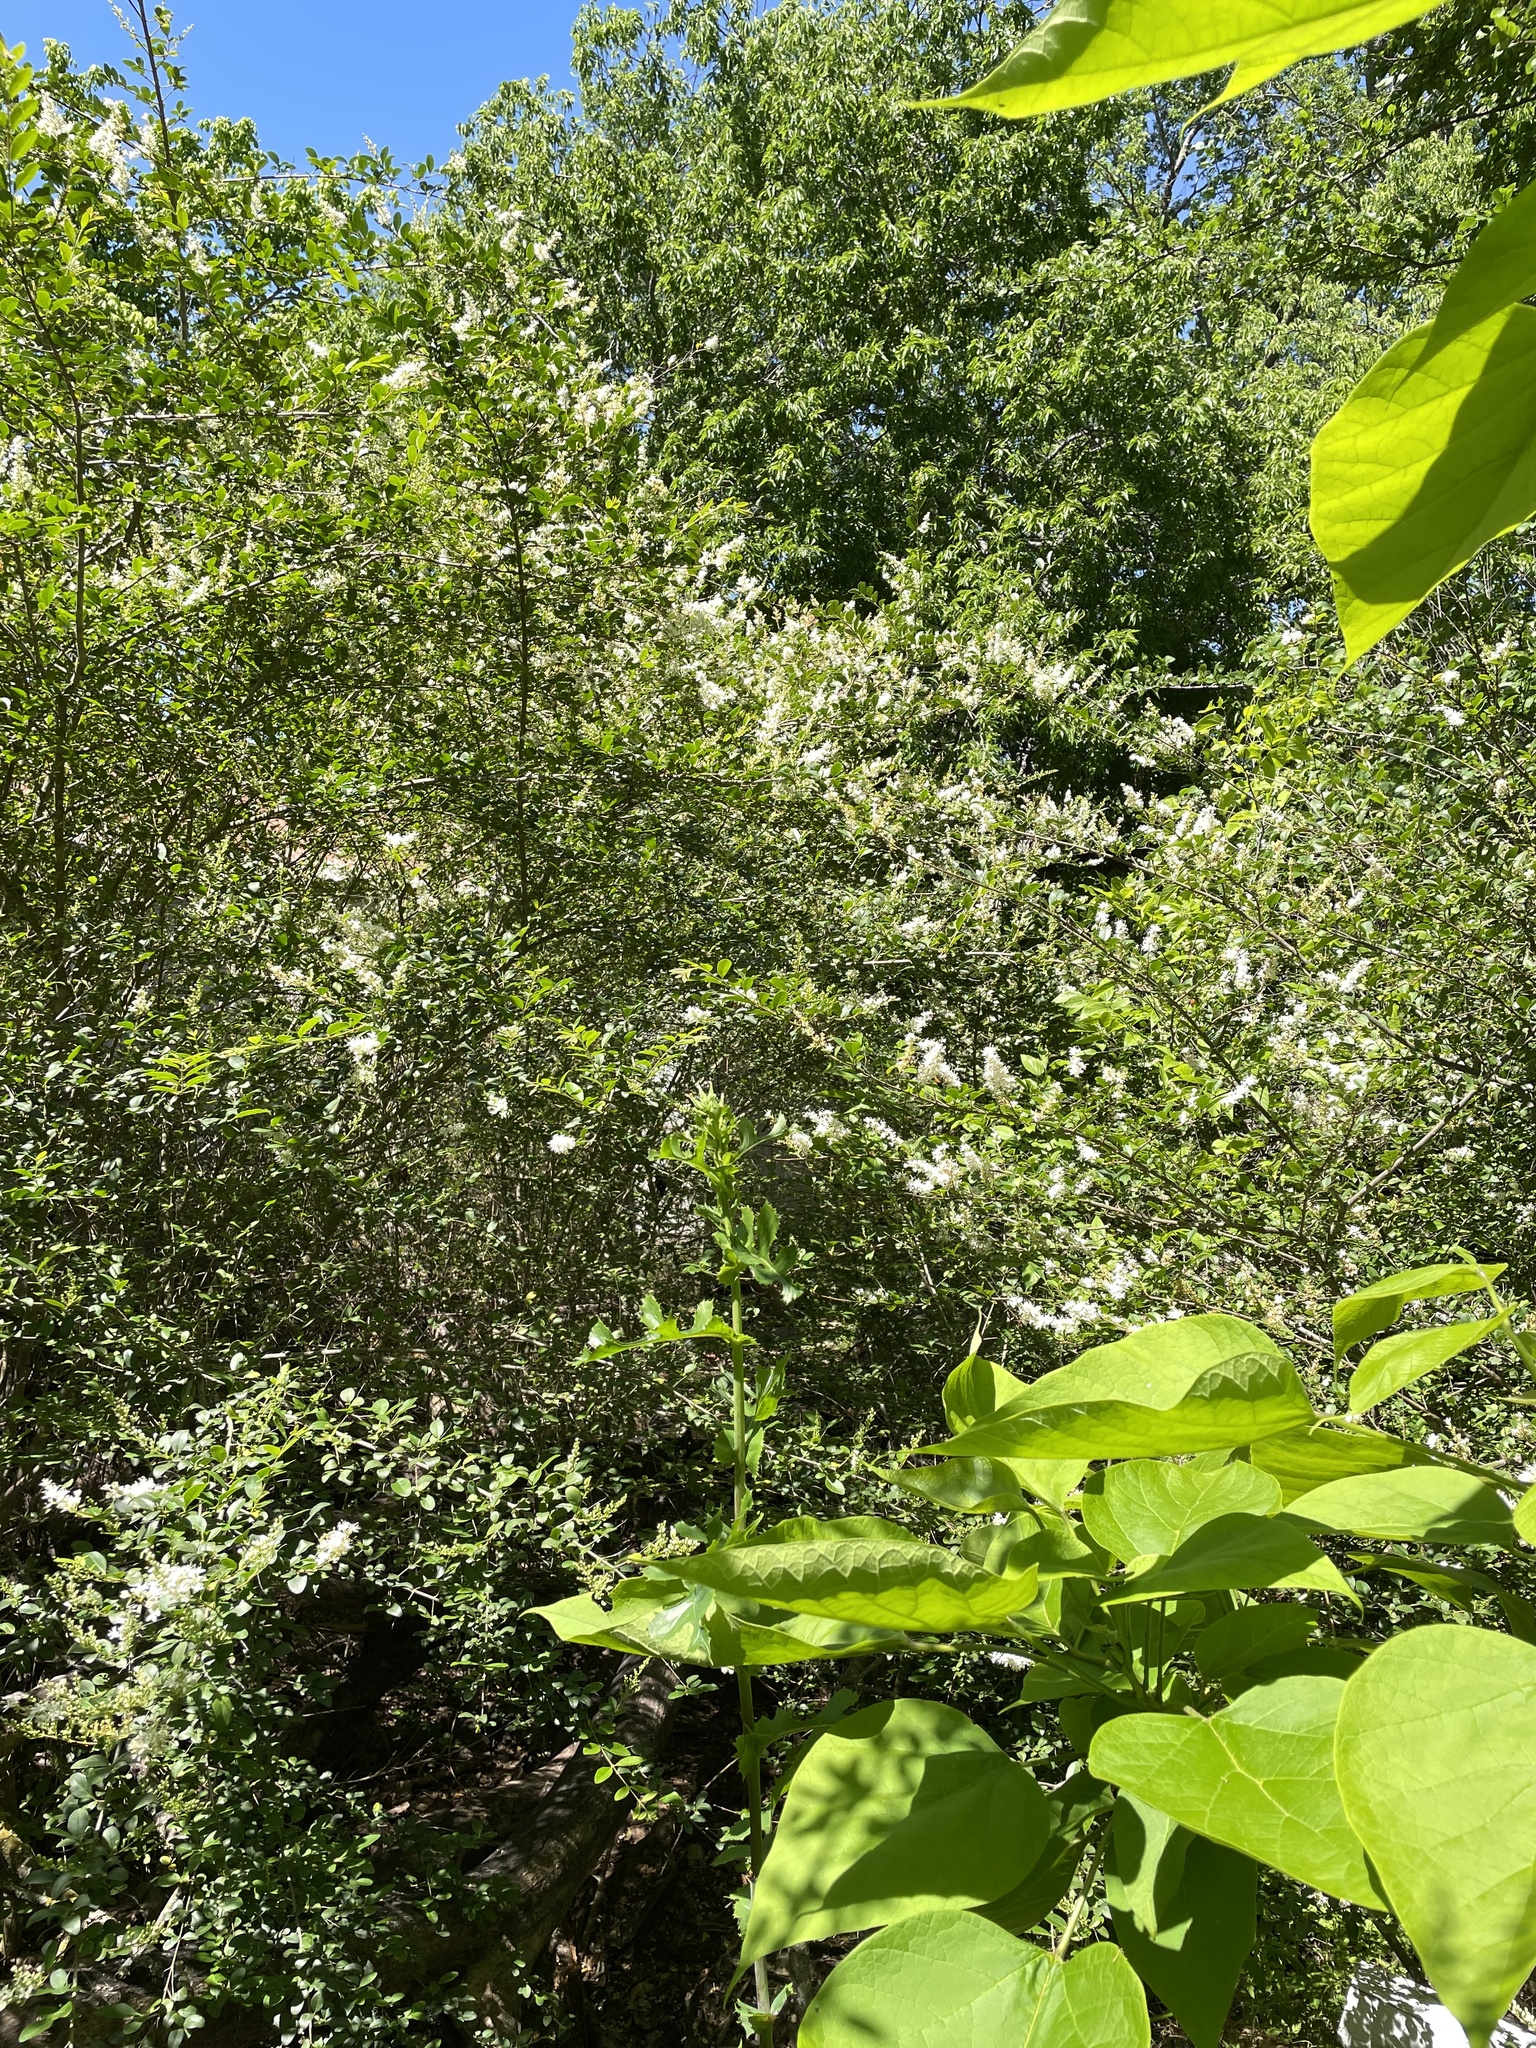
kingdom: Plantae
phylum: Tracheophyta
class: Magnoliopsida
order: Lamiales
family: Oleaceae
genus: Ligustrum
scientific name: Ligustrum sinense
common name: Chinese privet
